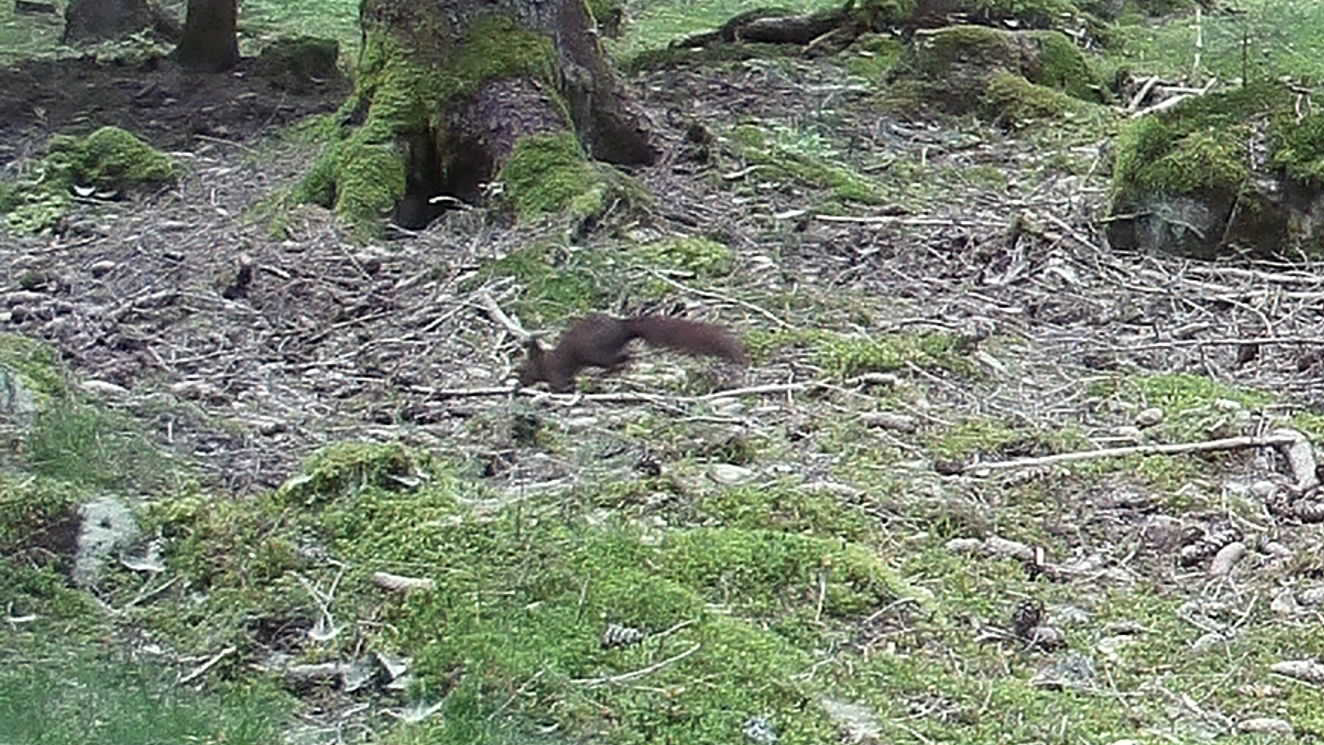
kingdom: Animalia
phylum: Chordata
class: Mammalia
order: Rodentia
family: Sciuridae
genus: Sciurus
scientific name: Sciurus vulgaris
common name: Eurasian red squirrel
